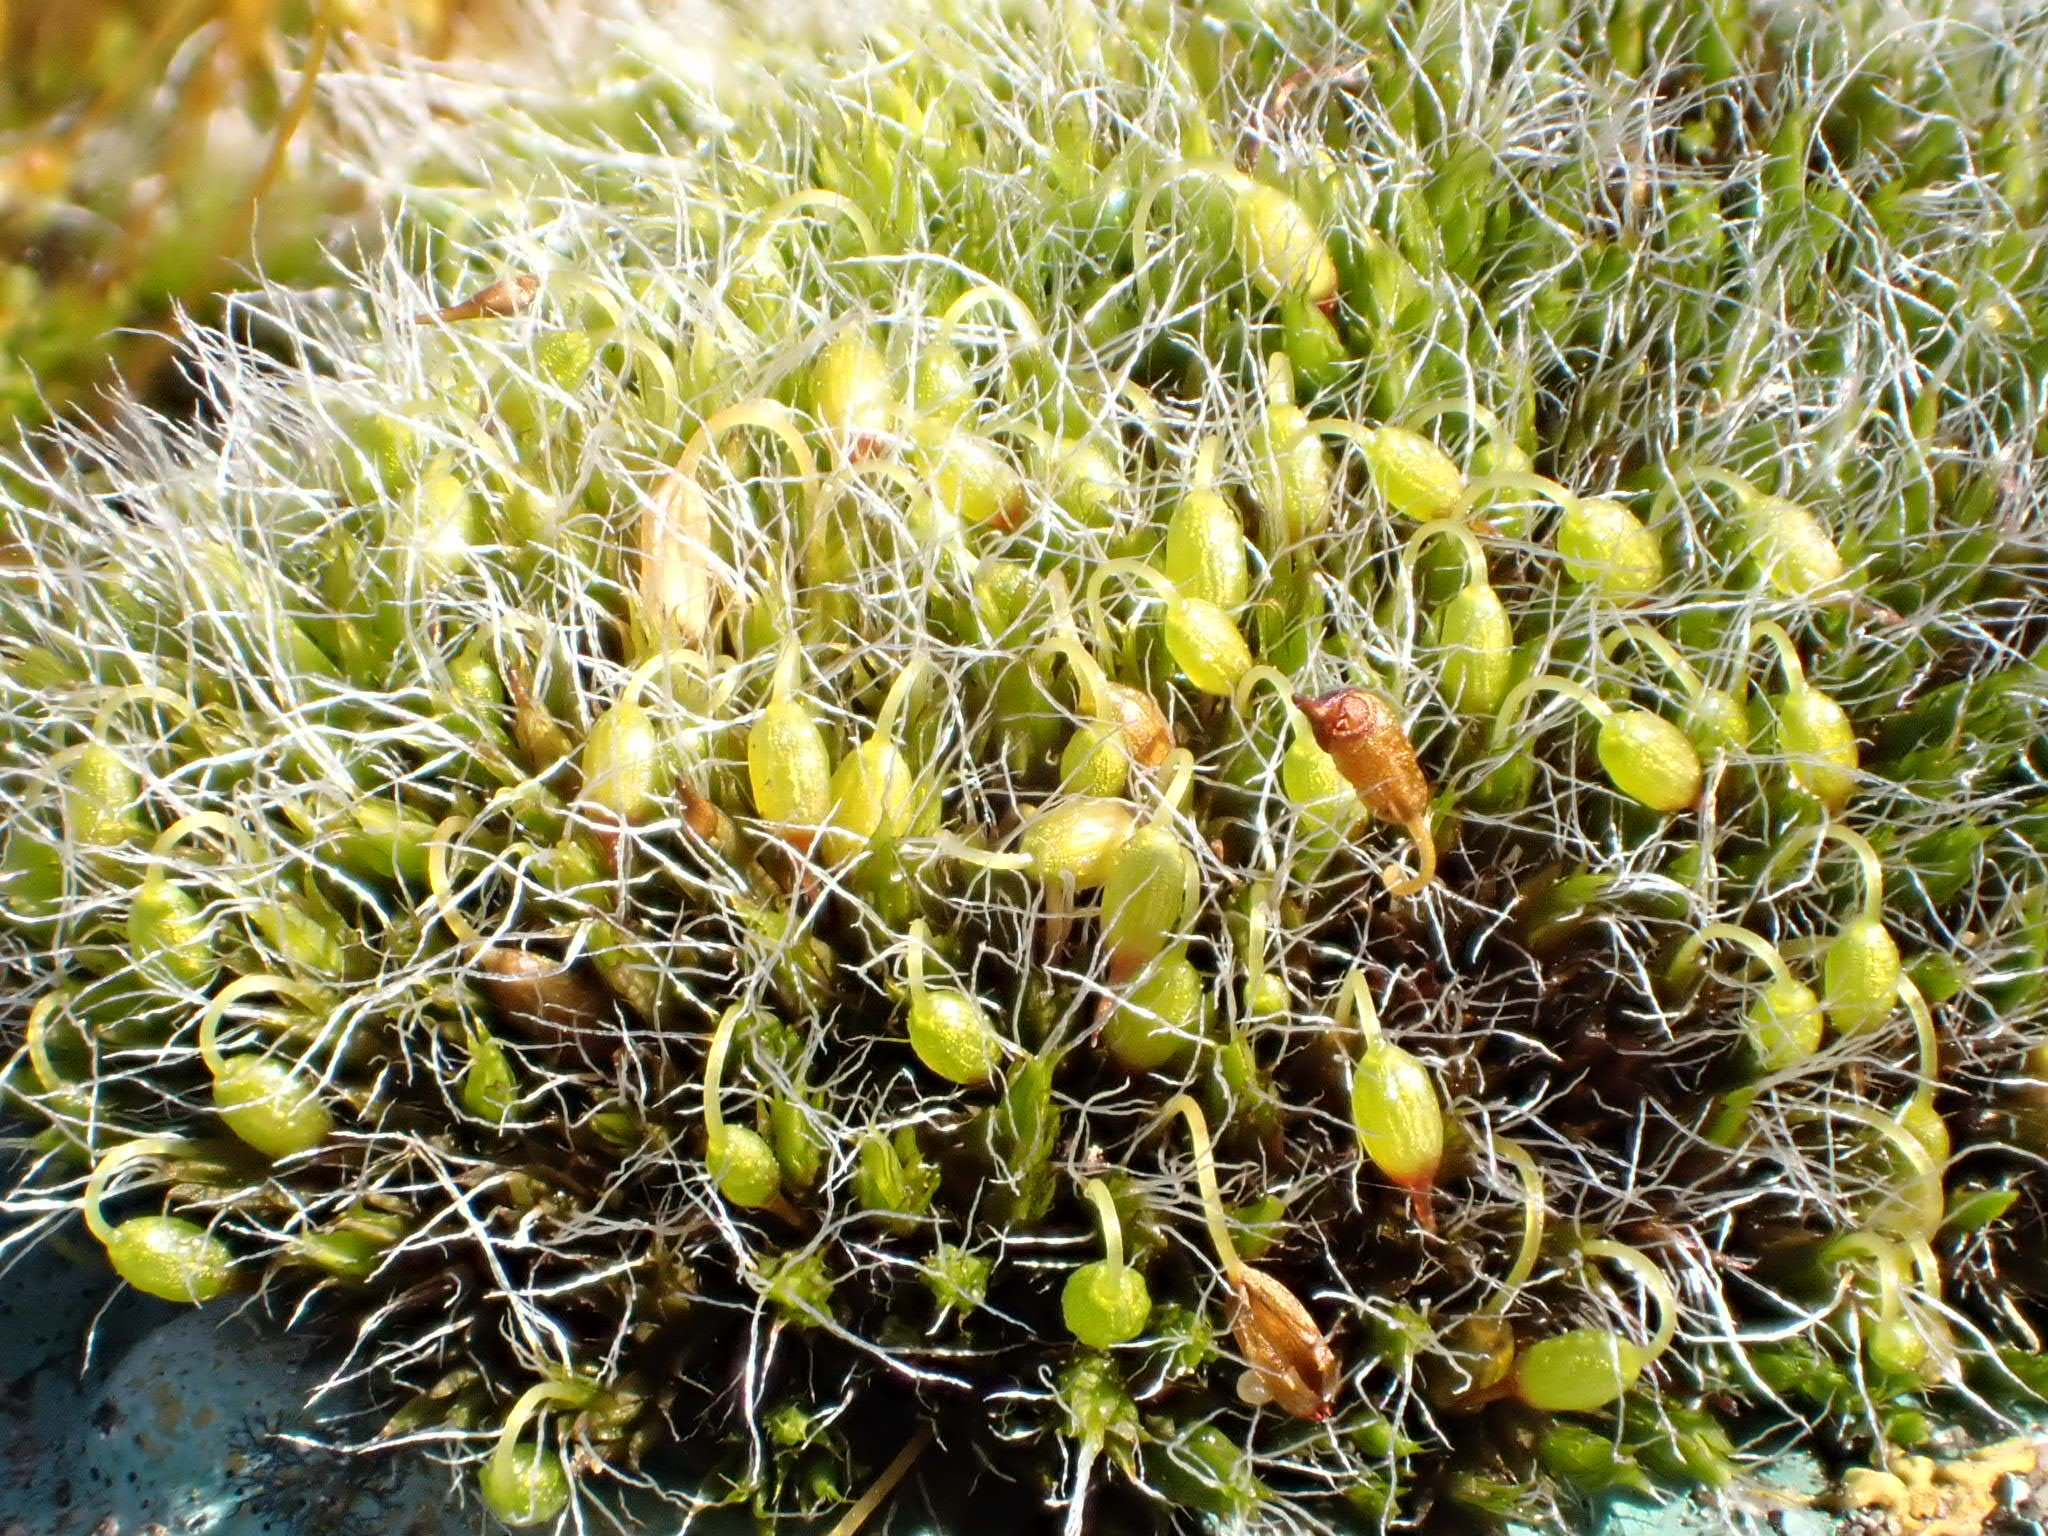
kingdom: Plantae
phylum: Bryophyta
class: Bryopsida
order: Grimmiales
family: Grimmiaceae
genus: Grimmia
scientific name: Grimmia pulvinata
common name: Grey-cushioned grimmia
